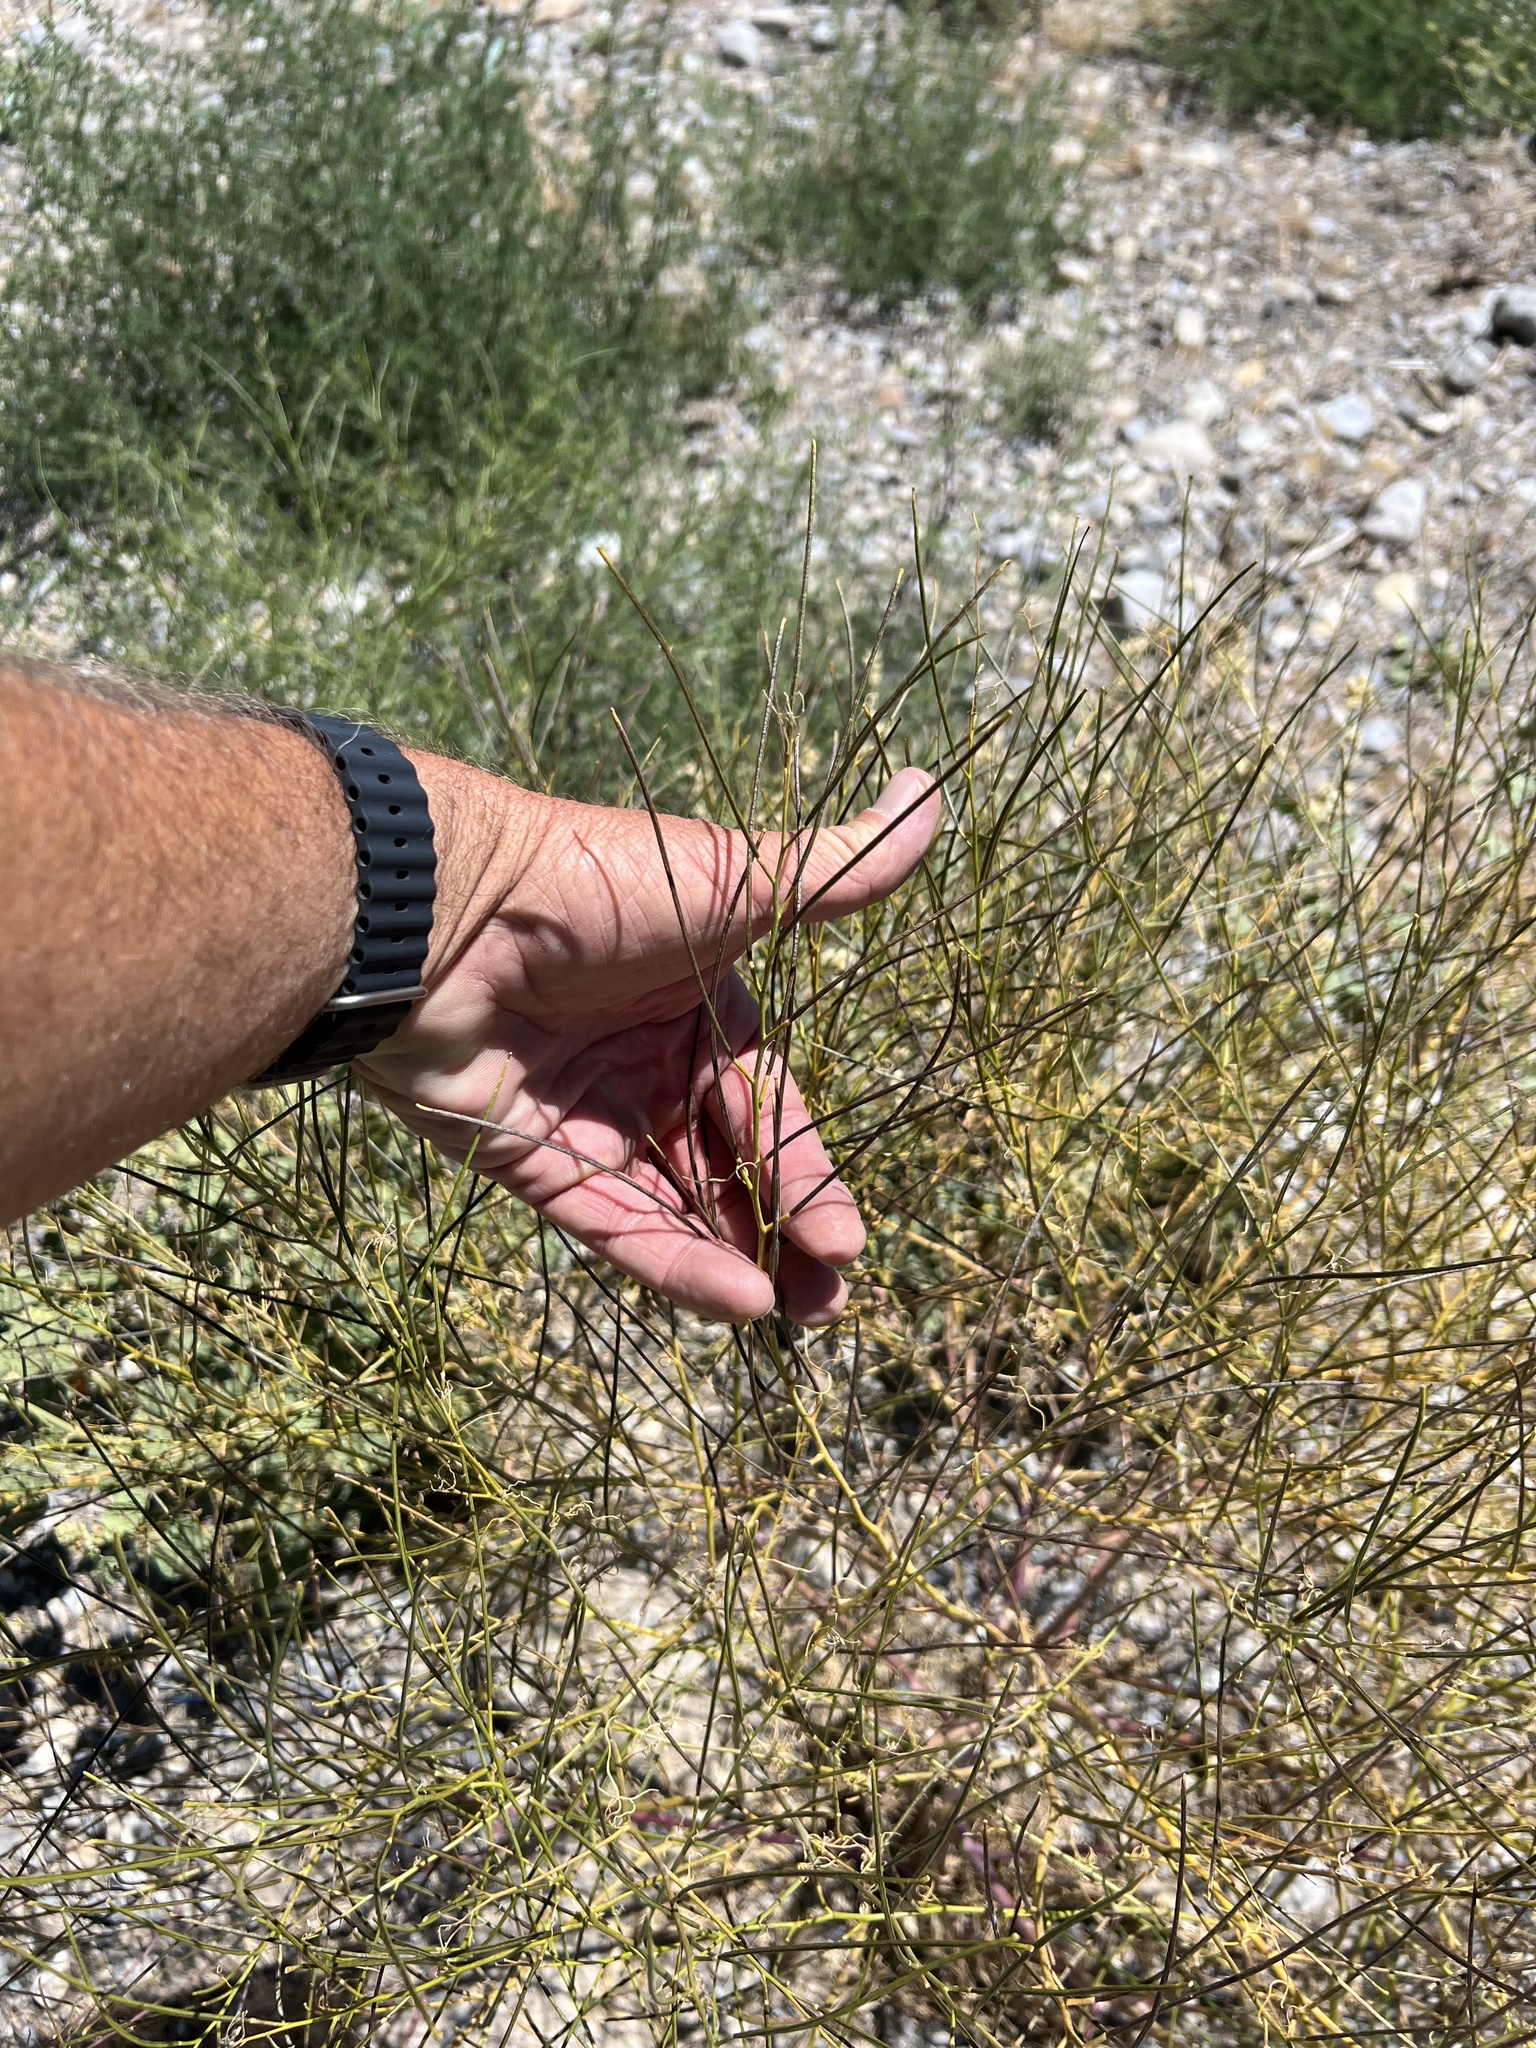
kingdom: Plantae
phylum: Tracheophyta
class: Magnoliopsida
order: Asterales
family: Asteraceae
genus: Ambrosia
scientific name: Ambrosia salsola
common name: Burrobrush
